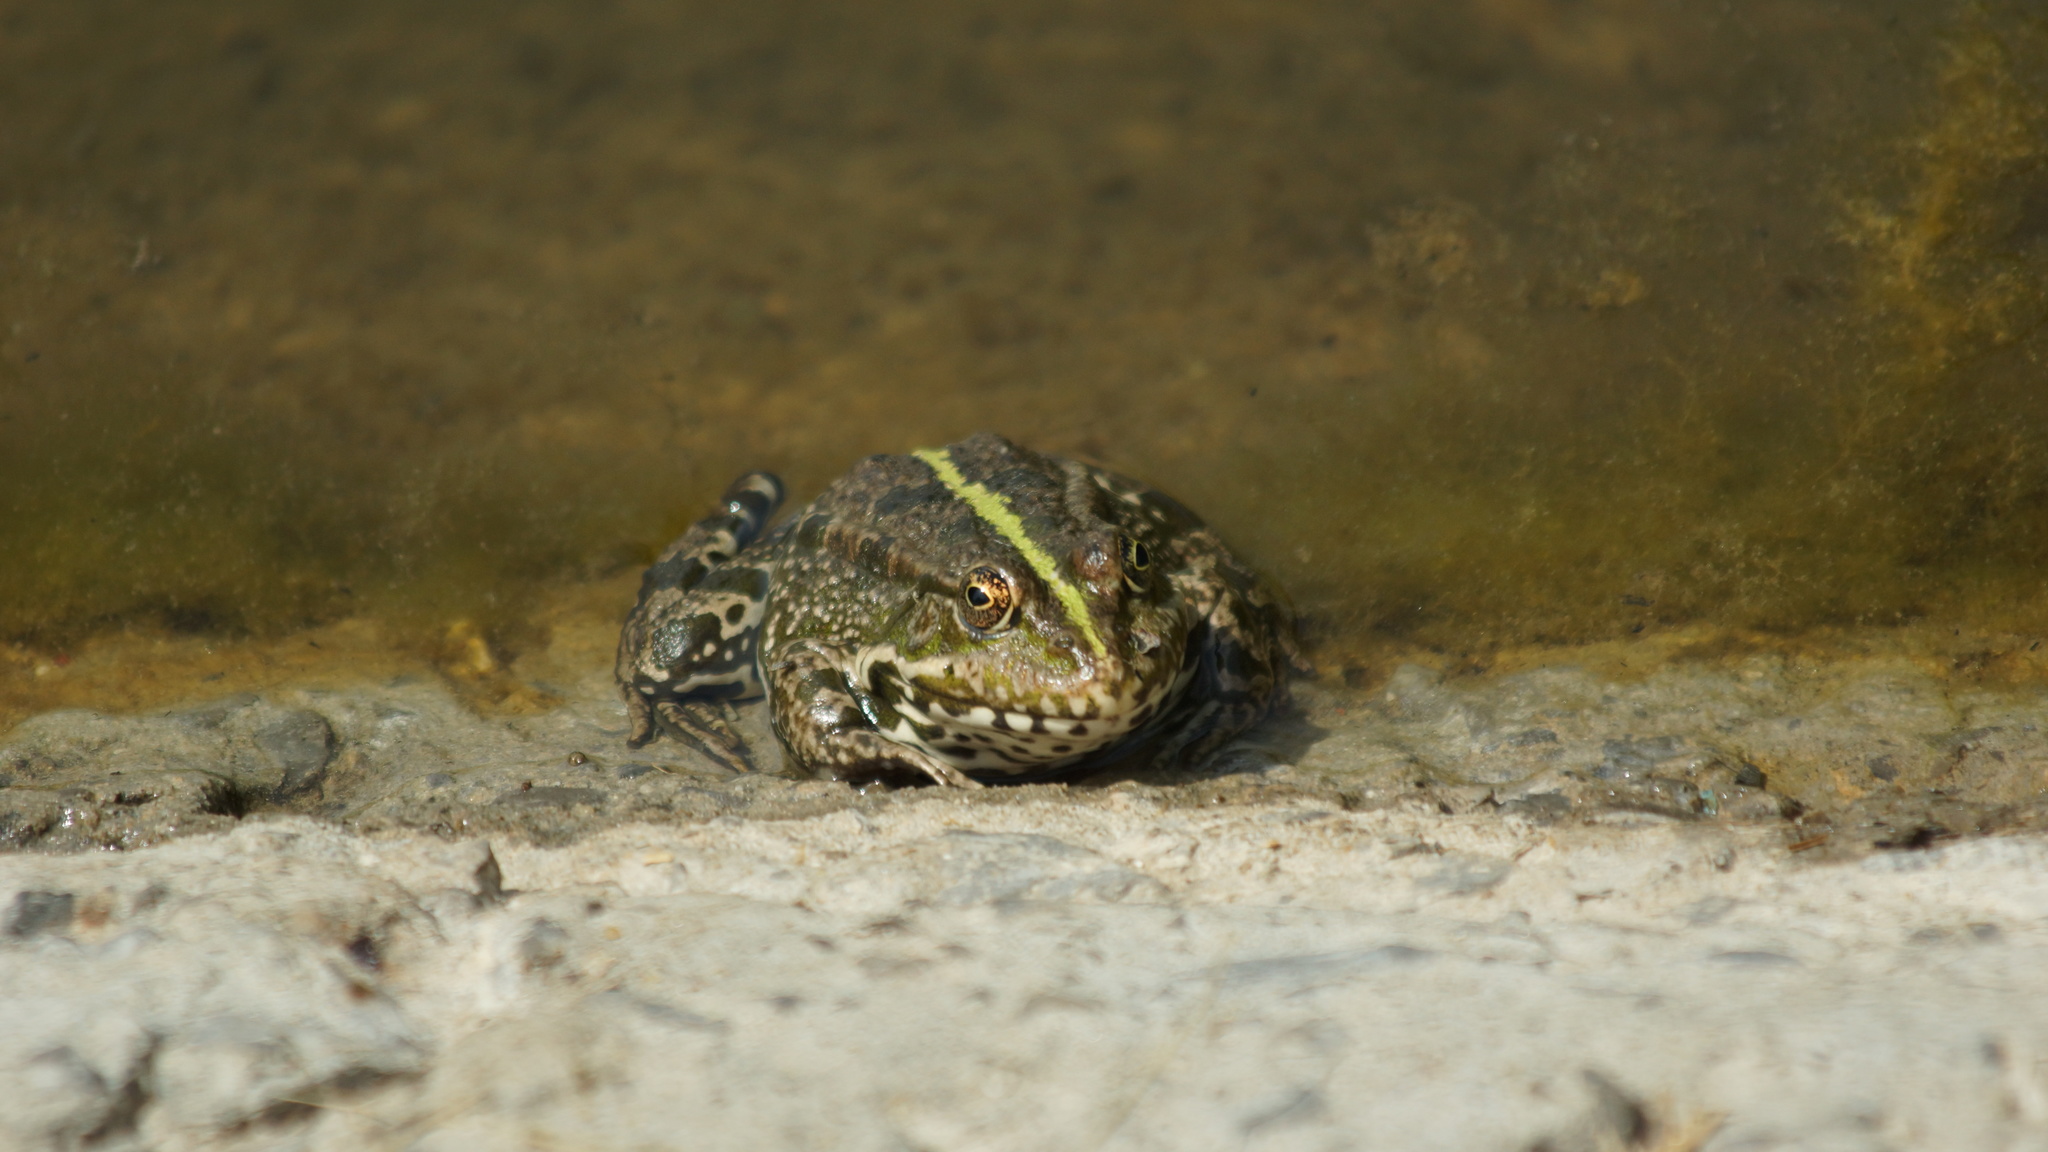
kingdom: Animalia
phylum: Chordata
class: Amphibia
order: Anura
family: Ranidae
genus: Pelophylax
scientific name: Pelophylax ridibundus
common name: Marsh frog
